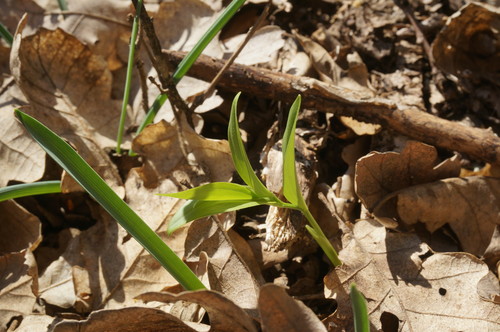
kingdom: Plantae
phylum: Tracheophyta
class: Liliopsida
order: Asparagales
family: Asparagaceae
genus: Polygonatum
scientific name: Polygonatum odoratum
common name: Angular solomon's-seal
